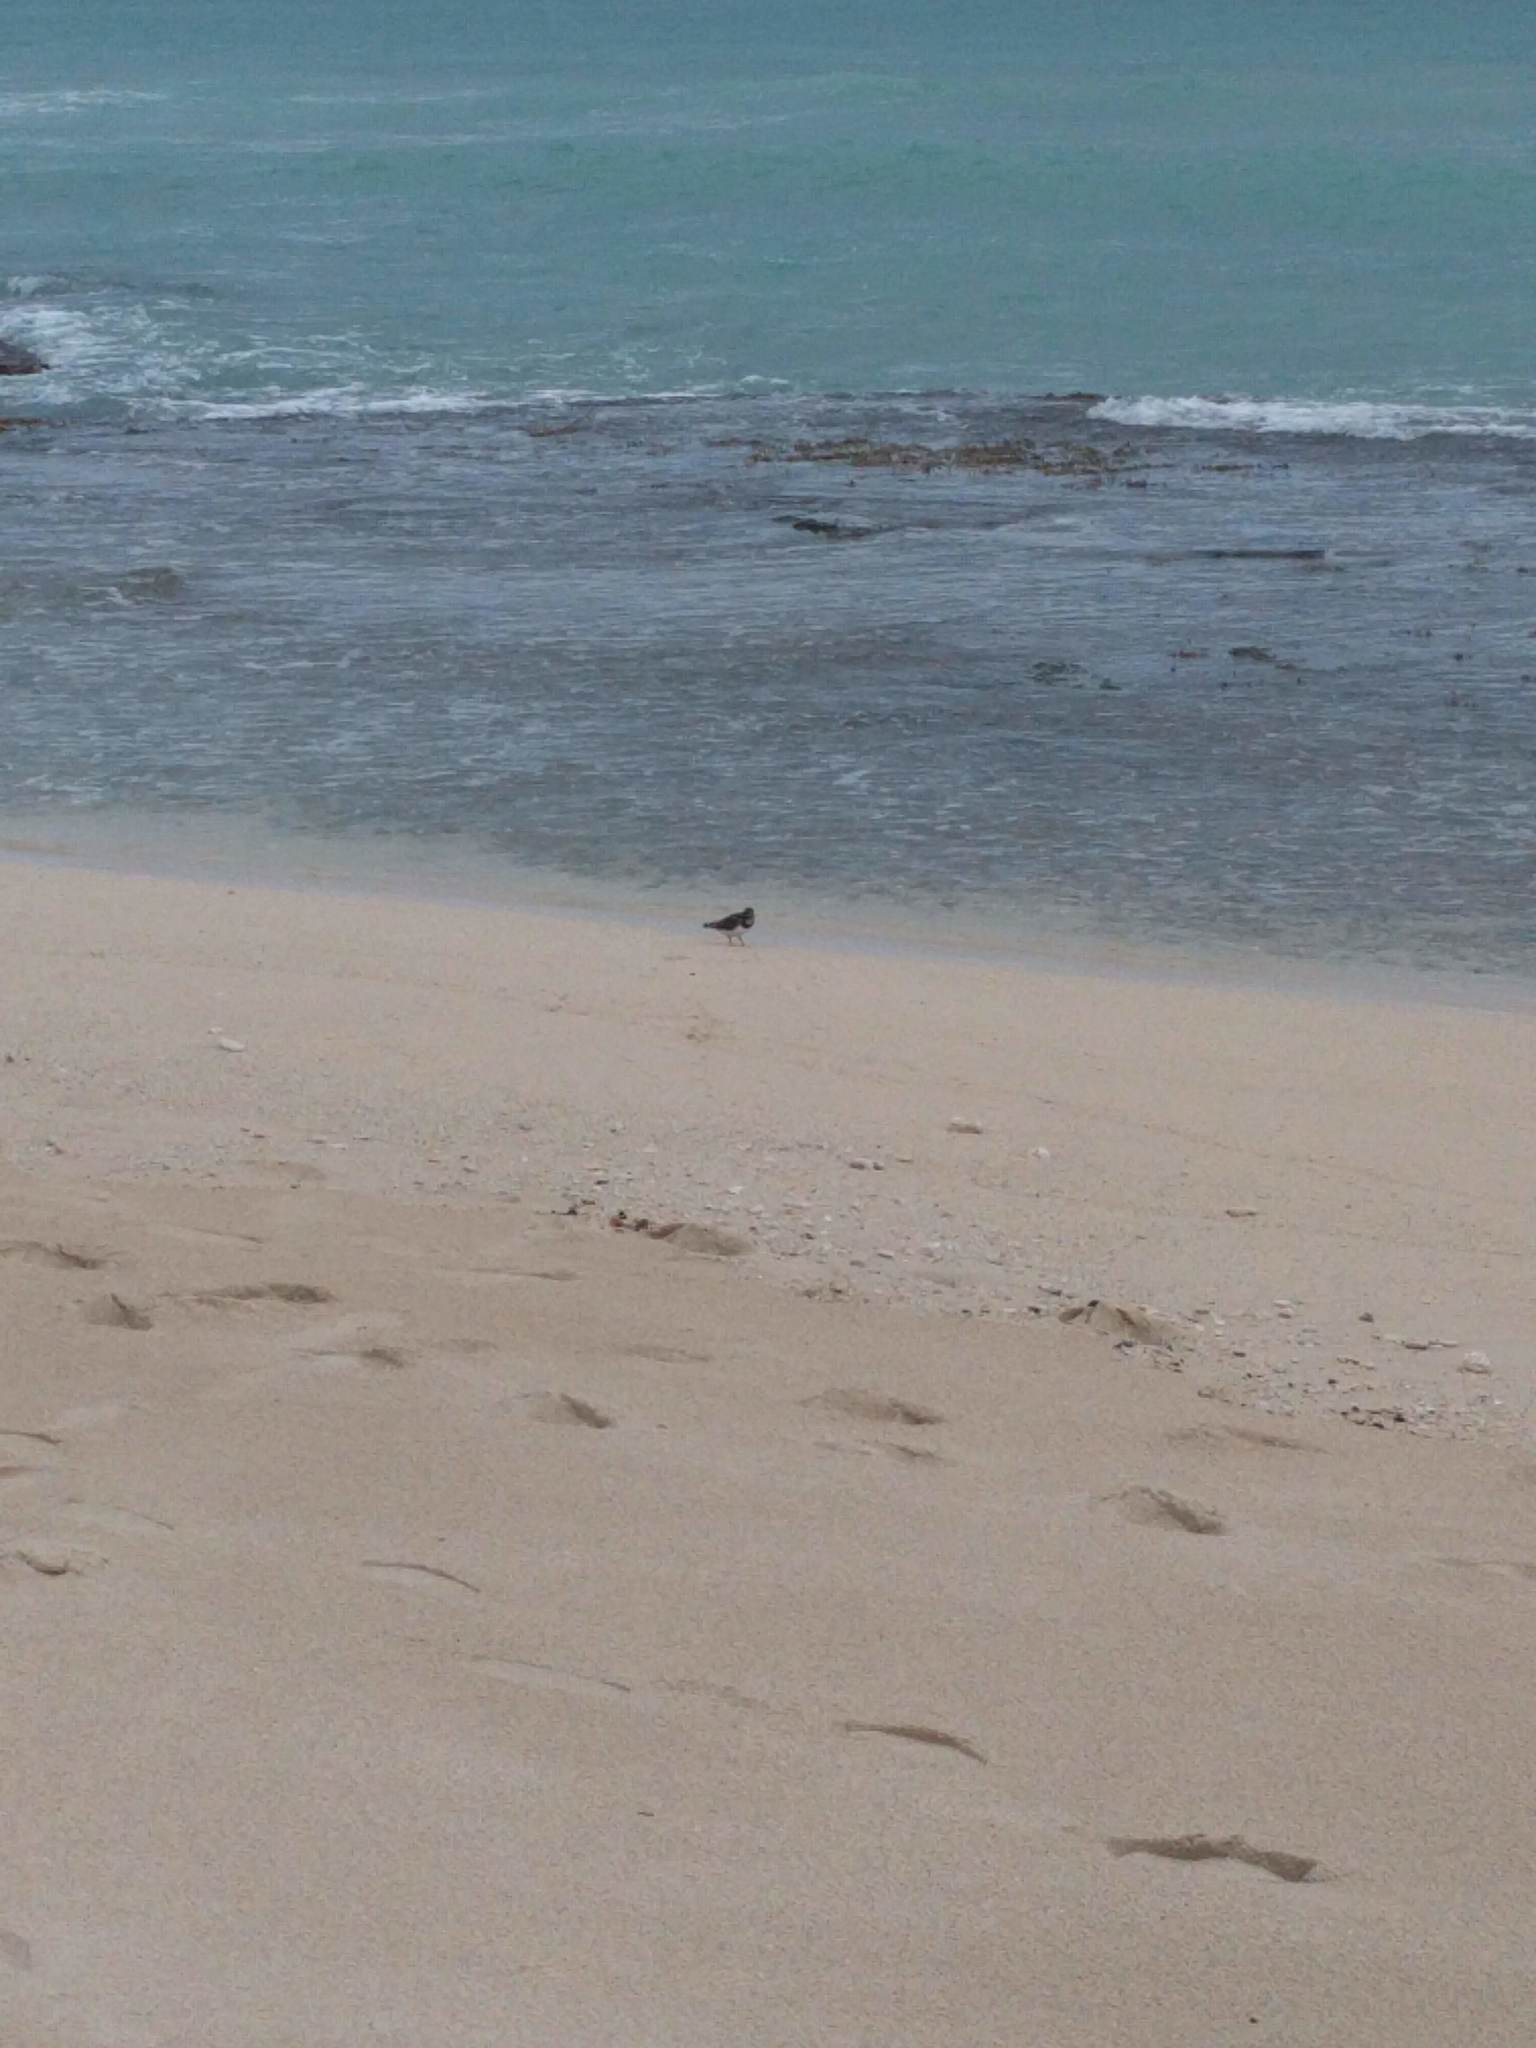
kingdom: Animalia
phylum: Chordata
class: Aves
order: Charadriiformes
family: Scolopacidae
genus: Arenaria
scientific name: Arenaria interpres
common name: Ruddy turnstone
